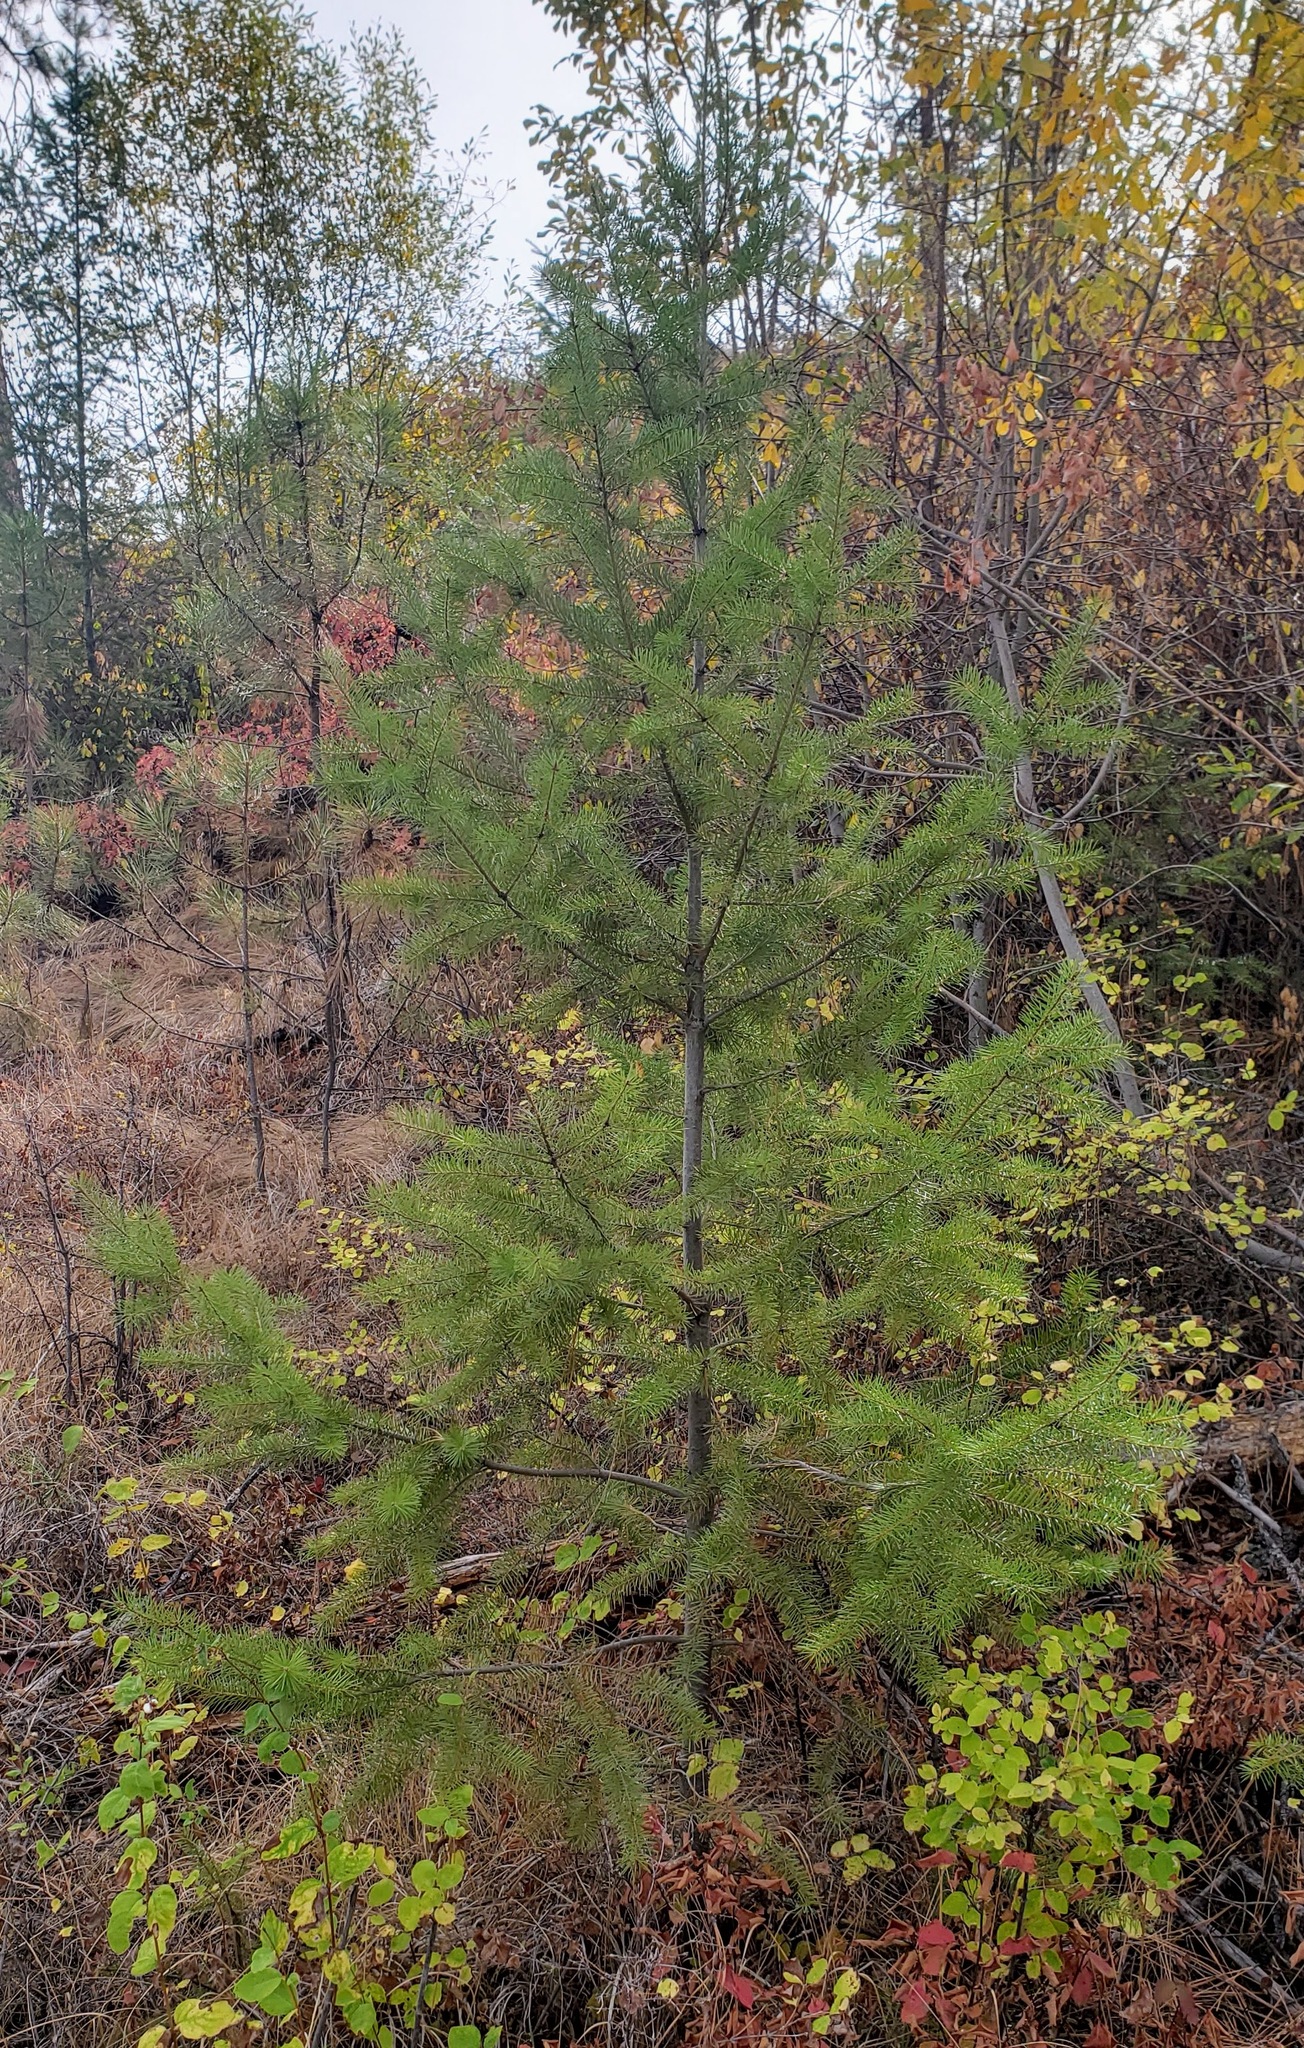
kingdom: Plantae
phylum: Tracheophyta
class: Pinopsida
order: Pinales
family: Pinaceae
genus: Pseudotsuga
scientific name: Pseudotsuga menziesii
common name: Douglas fir
